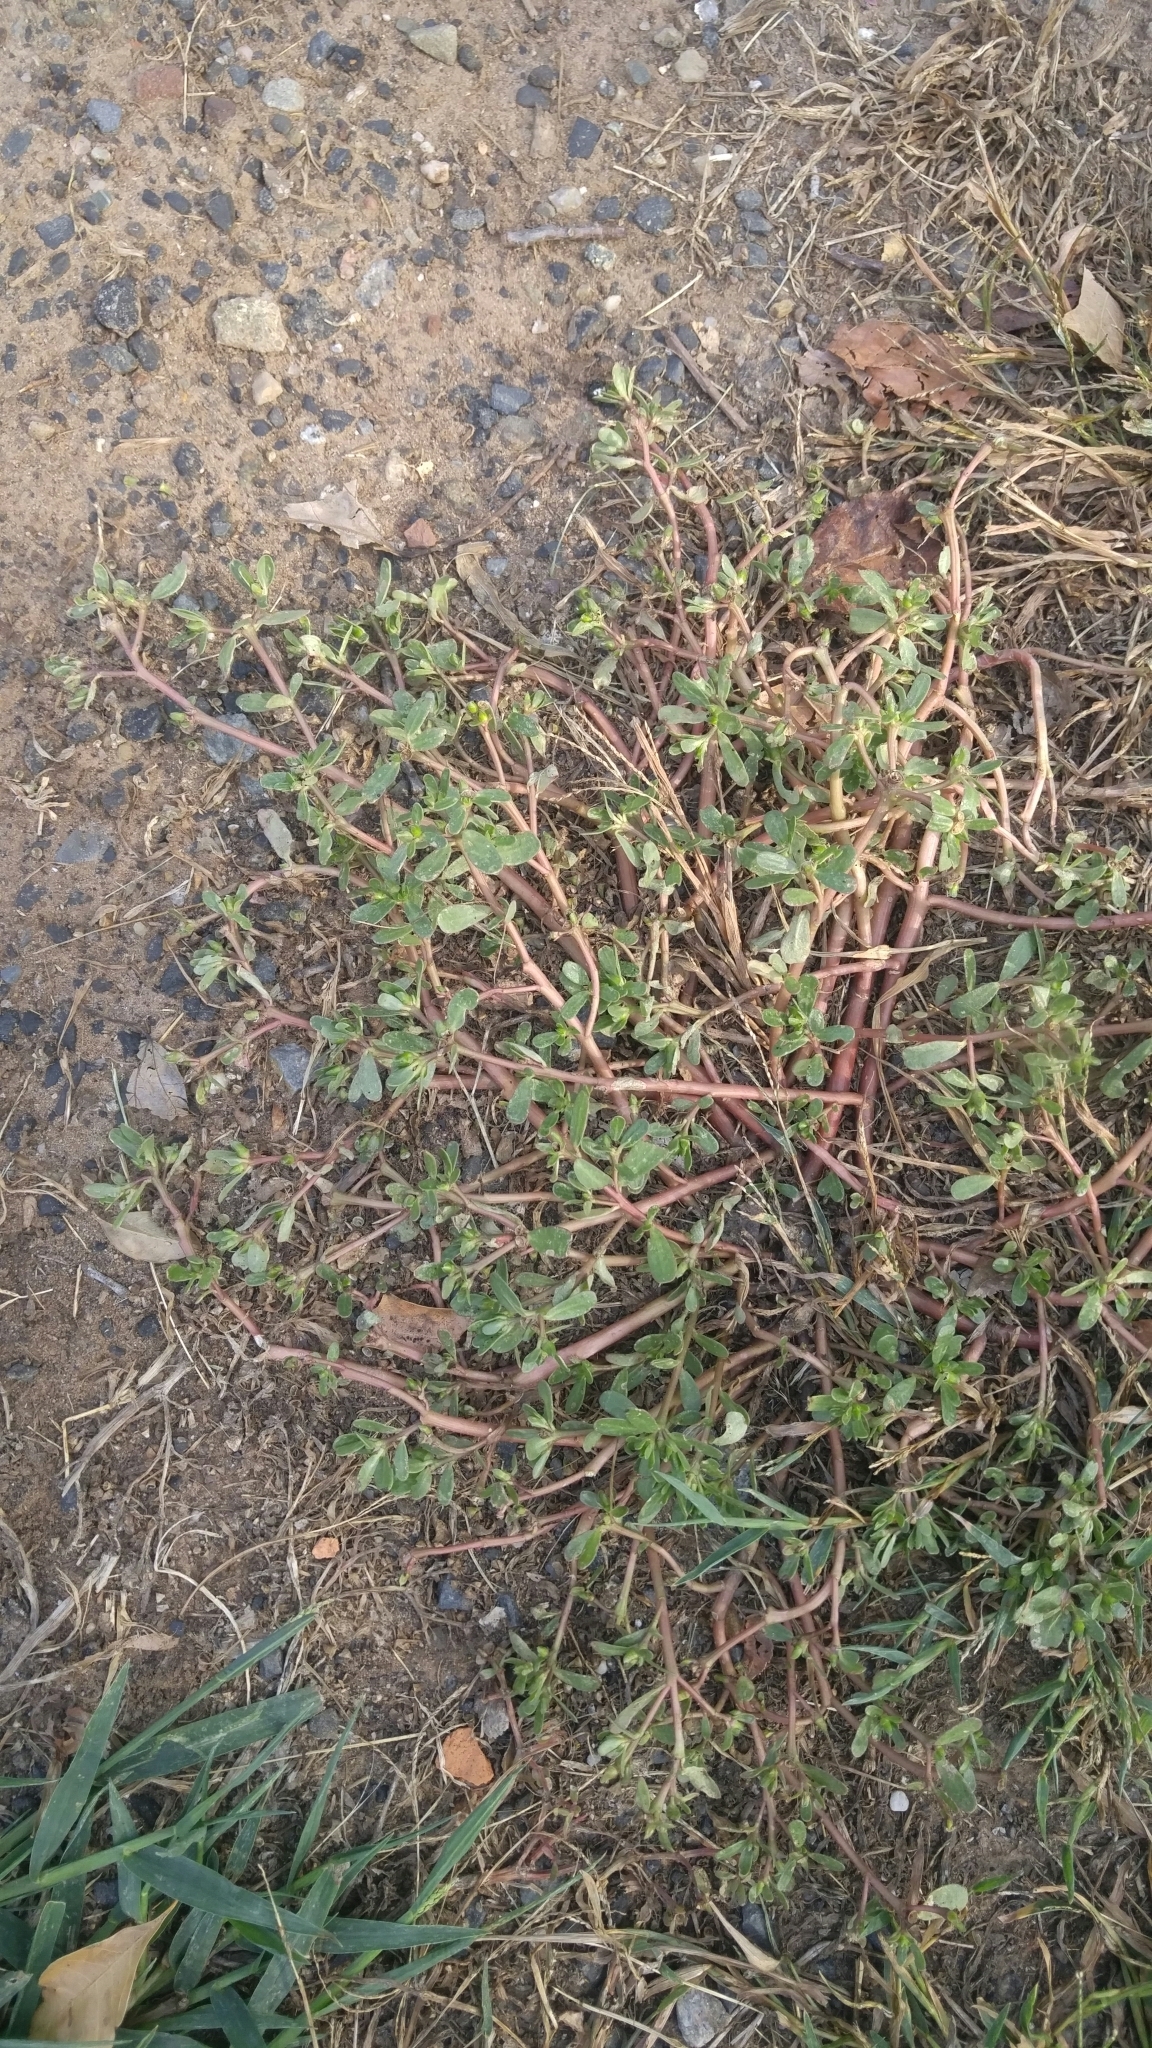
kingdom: Plantae
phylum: Tracheophyta
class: Magnoliopsida
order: Caryophyllales
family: Portulacaceae
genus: Portulaca
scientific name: Portulaca oleracea
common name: Common purslane
